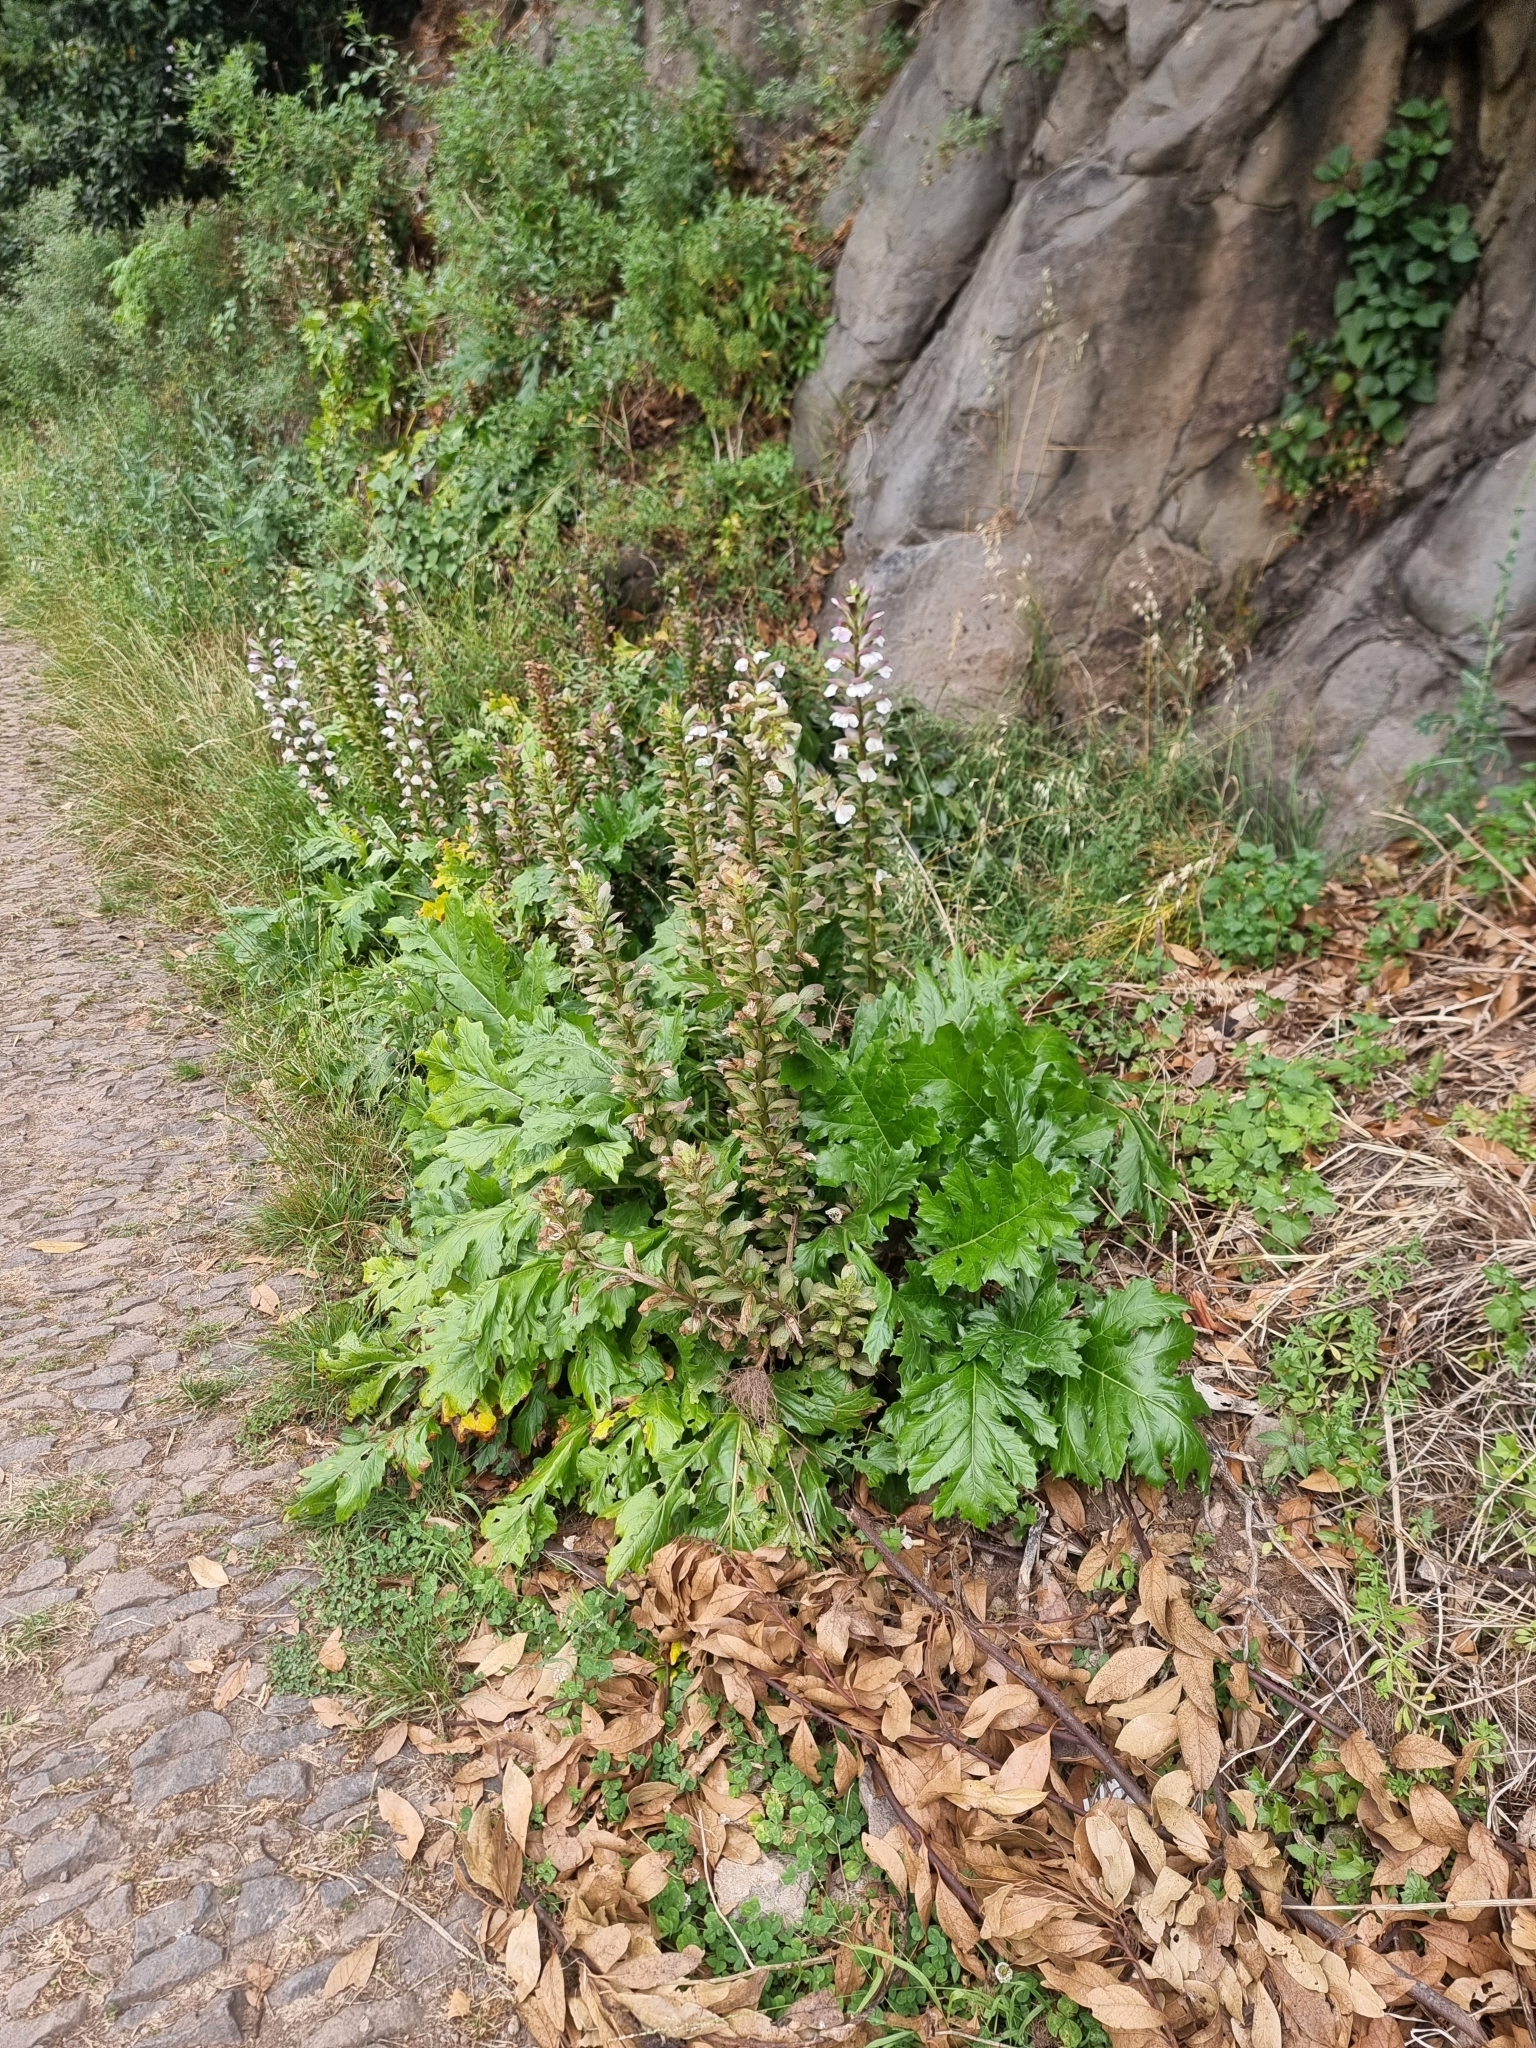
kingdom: Plantae
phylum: Tracheophyta
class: Magnoliopsida
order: Lamiales
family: Acanthaceae
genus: Acanthus
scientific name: Acanthus mollis
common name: Bear's-breech
